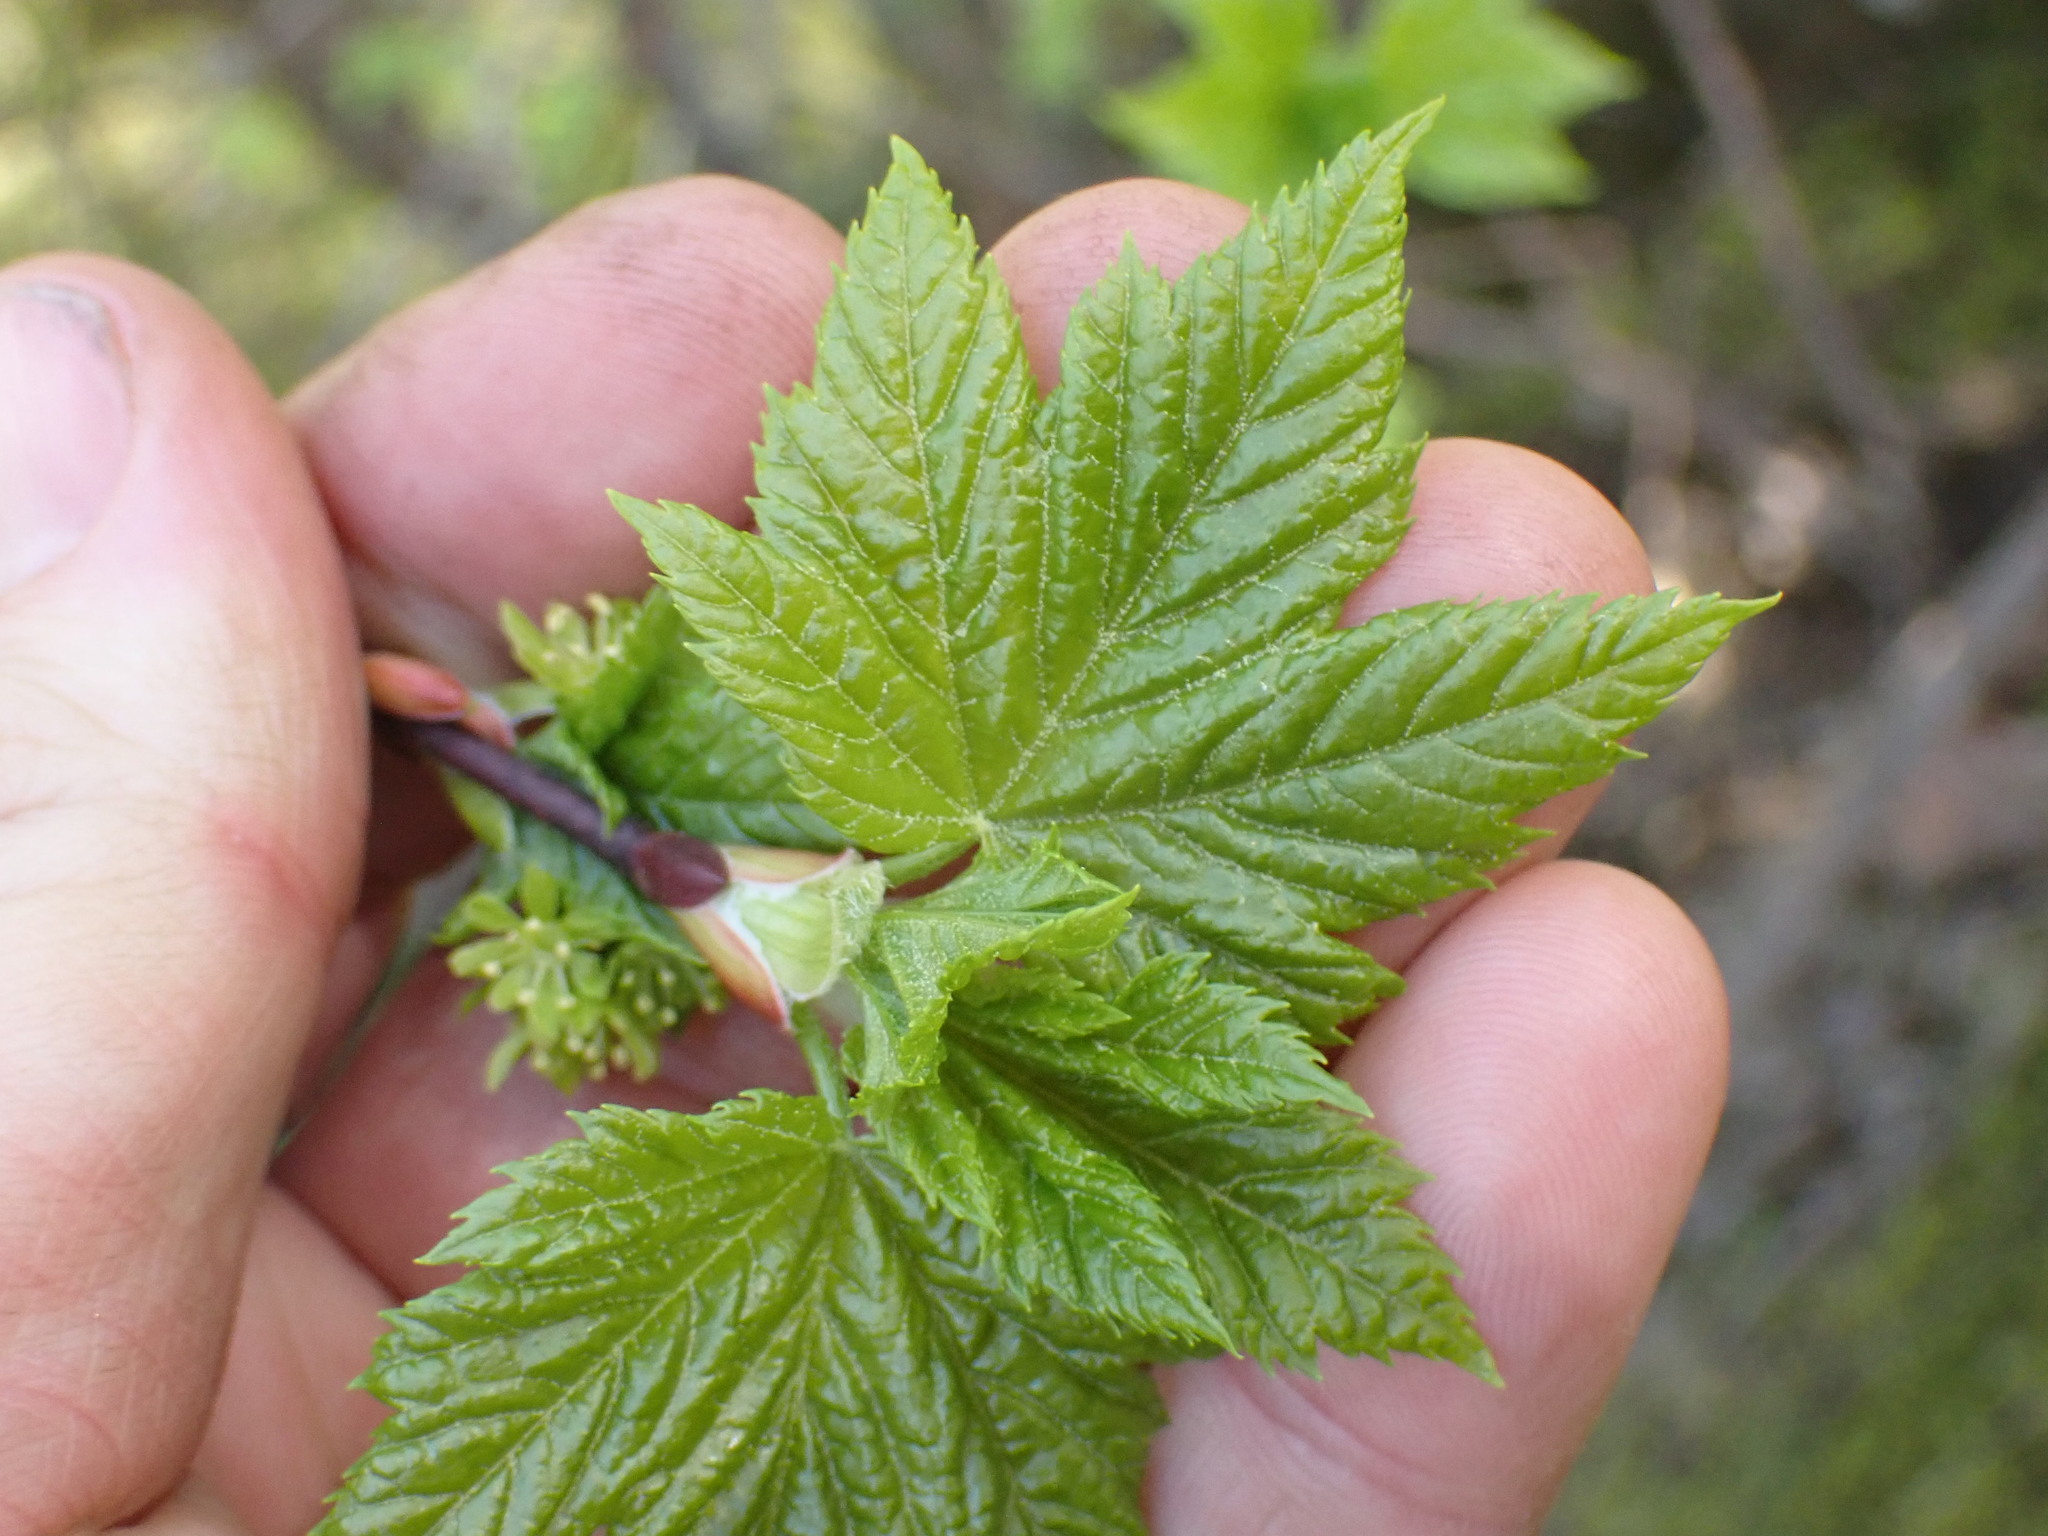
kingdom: Plantae
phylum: Tracheophyta
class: Magnoliopsida
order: Sapindales
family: Sapindaceae
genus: Acer
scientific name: Acer glabrum
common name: Rocky mountain maple
